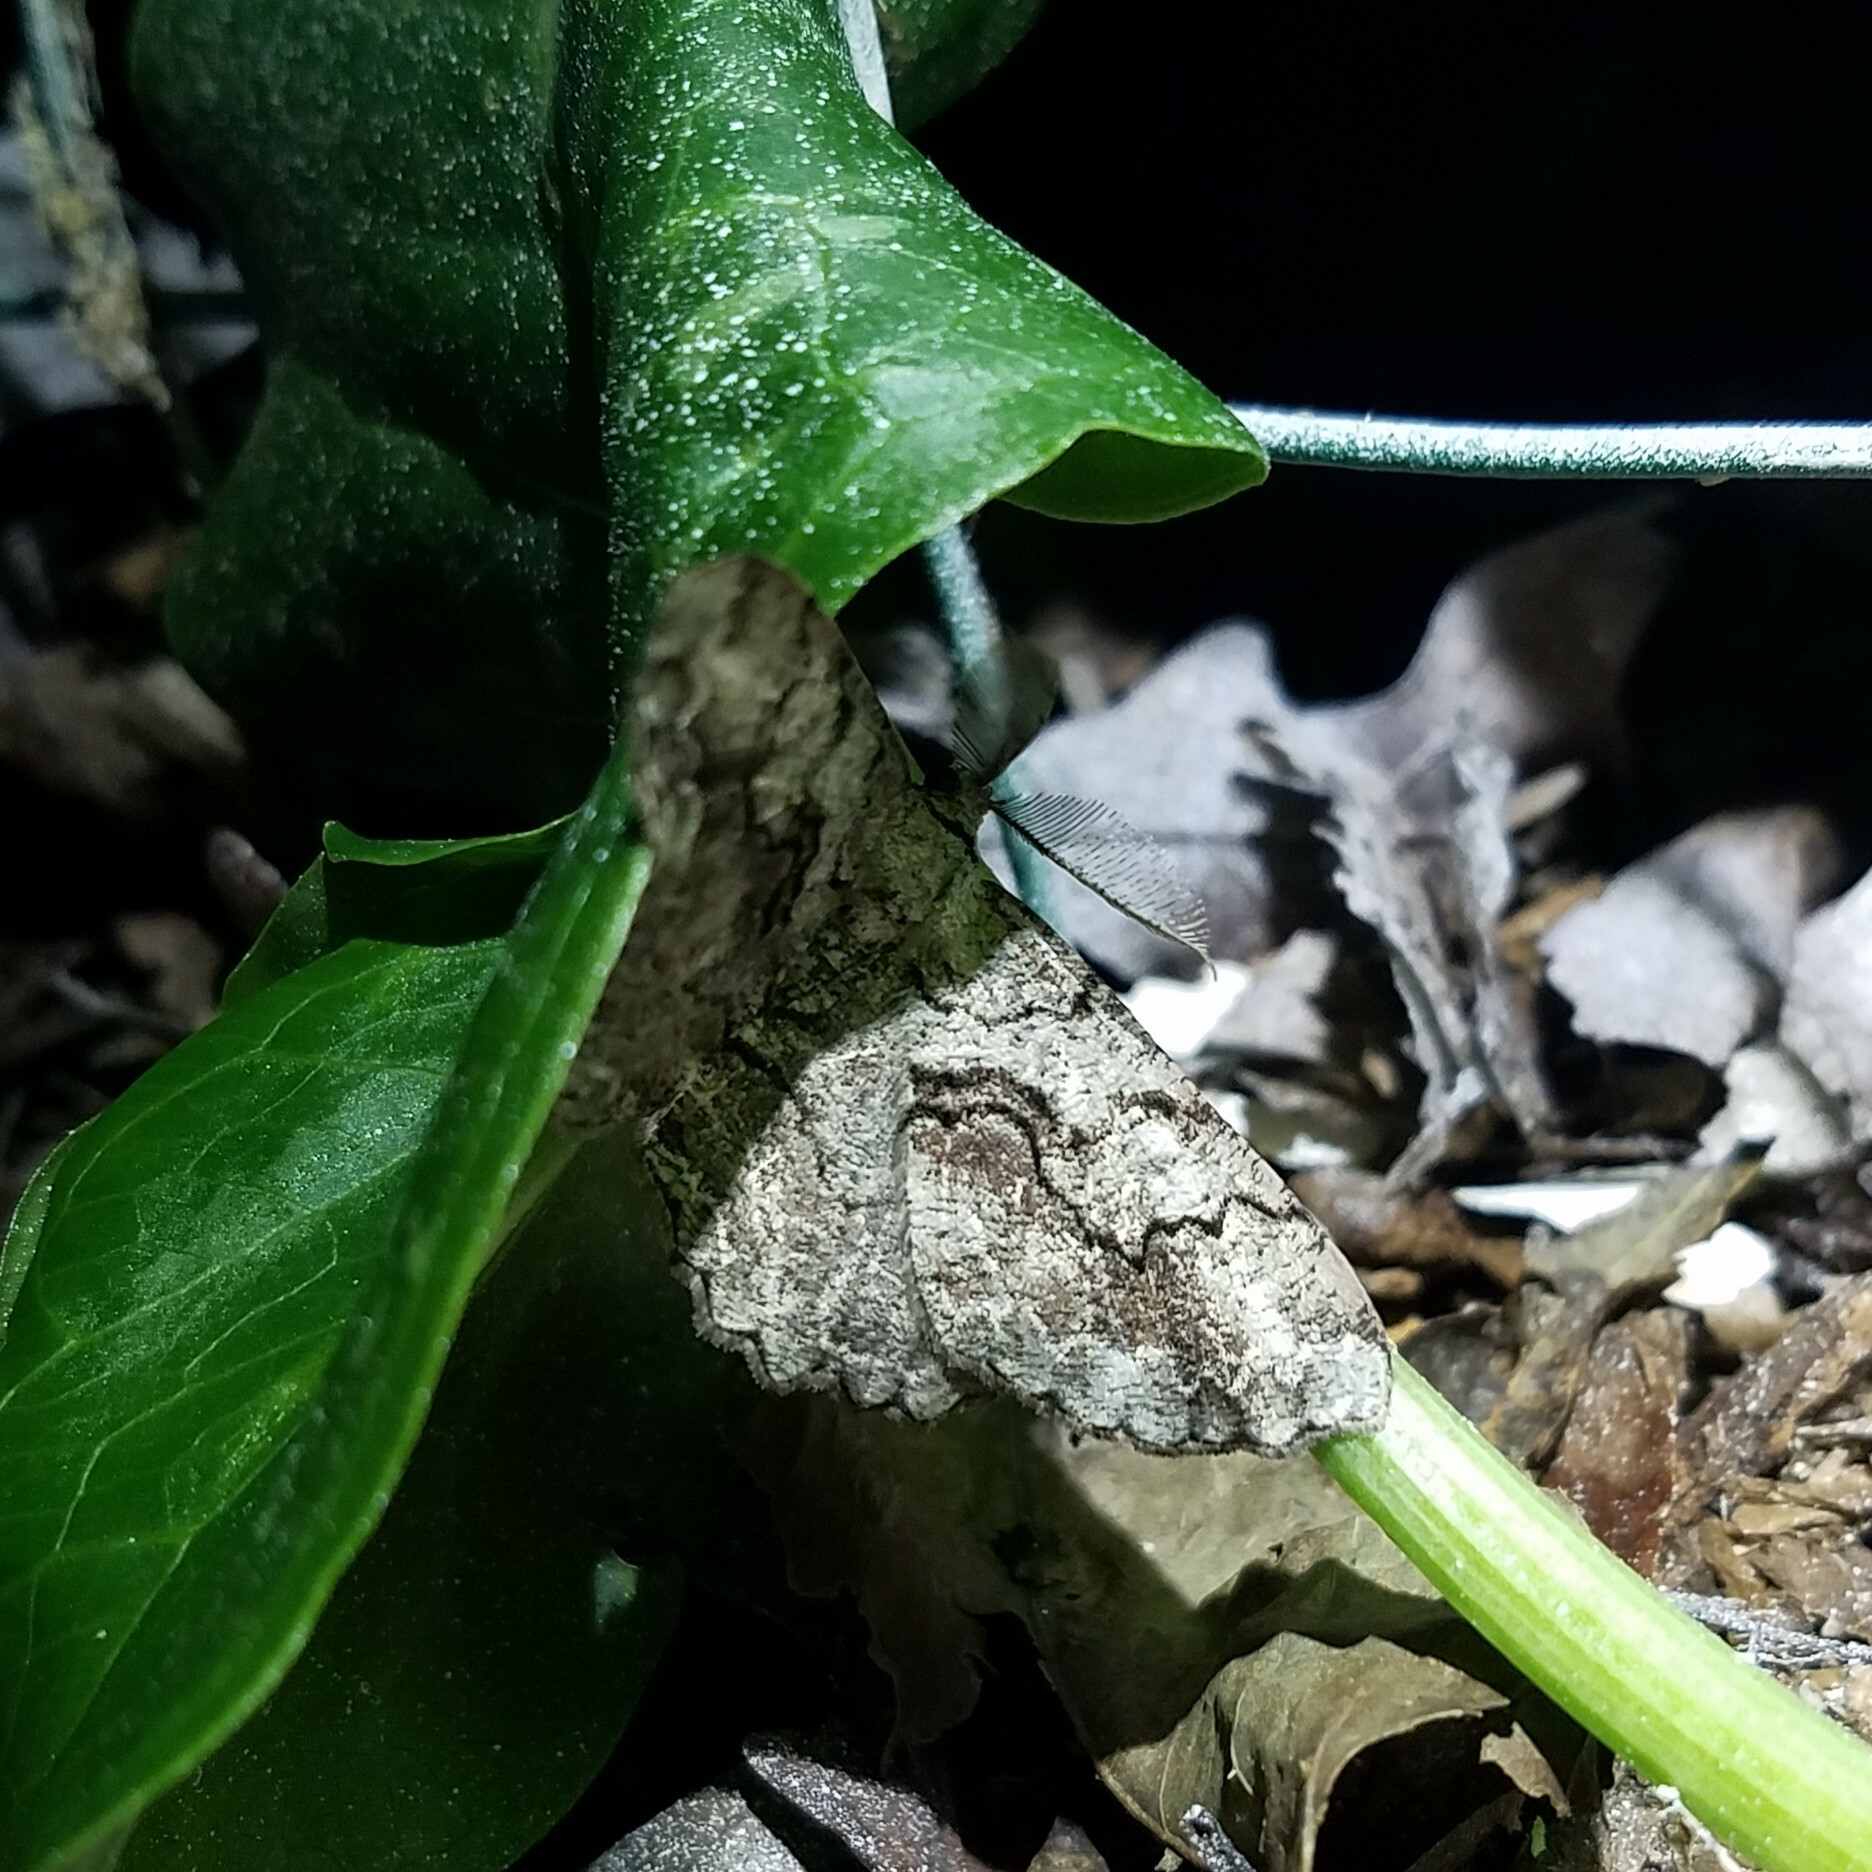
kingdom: Animalia
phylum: Arthropoda
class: Insecta
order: Lepidoptera
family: Geometridae
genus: Cymatophora
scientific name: Cymatophora approximaria
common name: Giant gray moth
